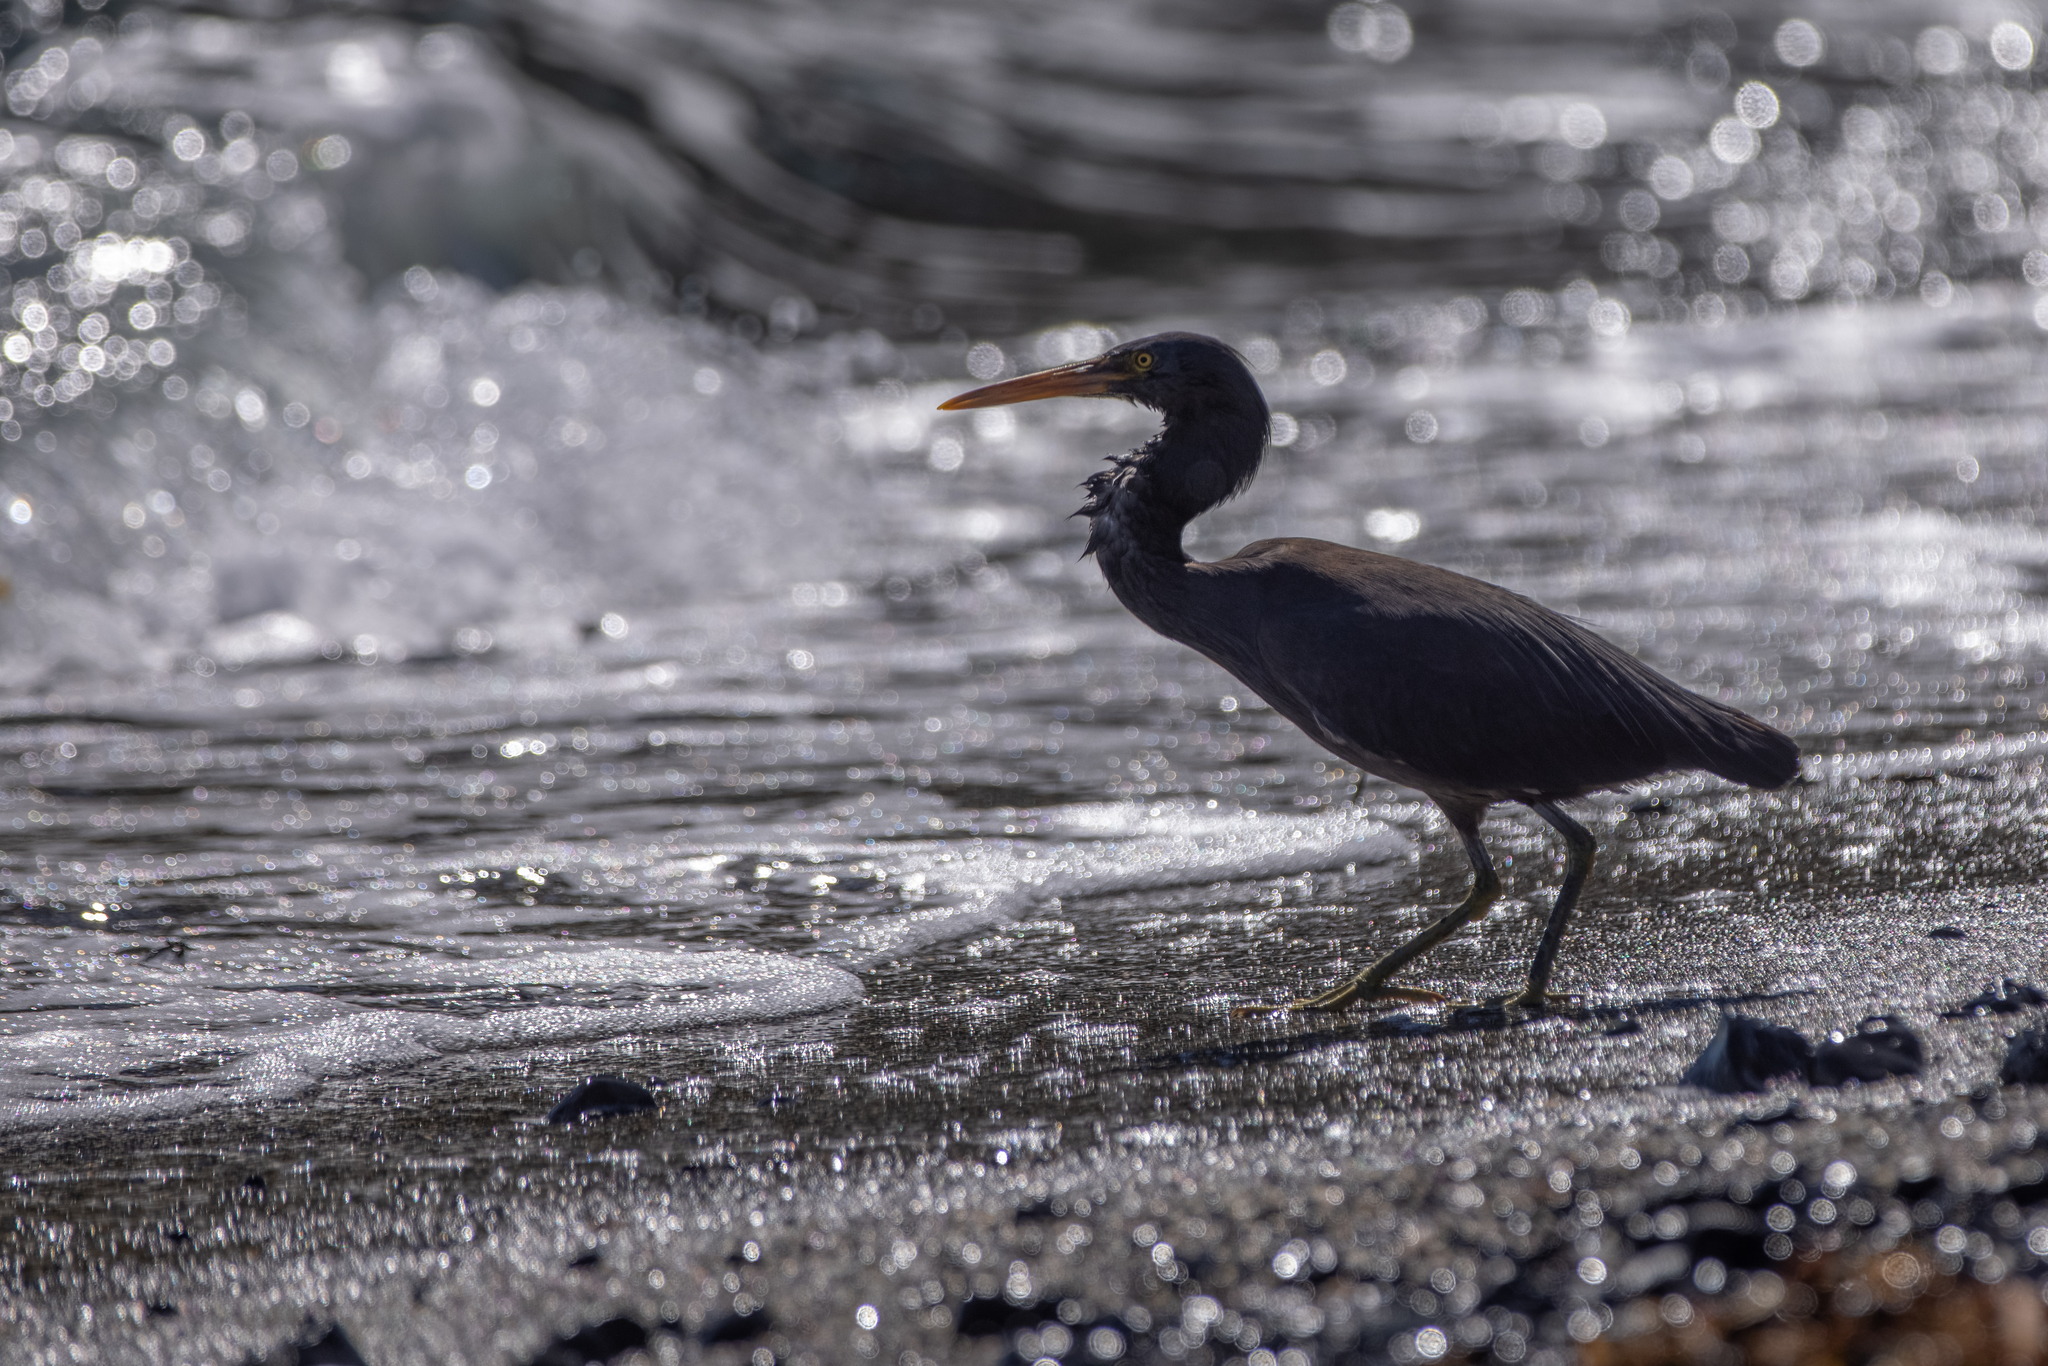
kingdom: Animalia
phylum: Chordata
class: Aves
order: Pelecaniformes
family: Ardeidae
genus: Egretta
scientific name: Egretta sacra
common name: Pacific reef heron
